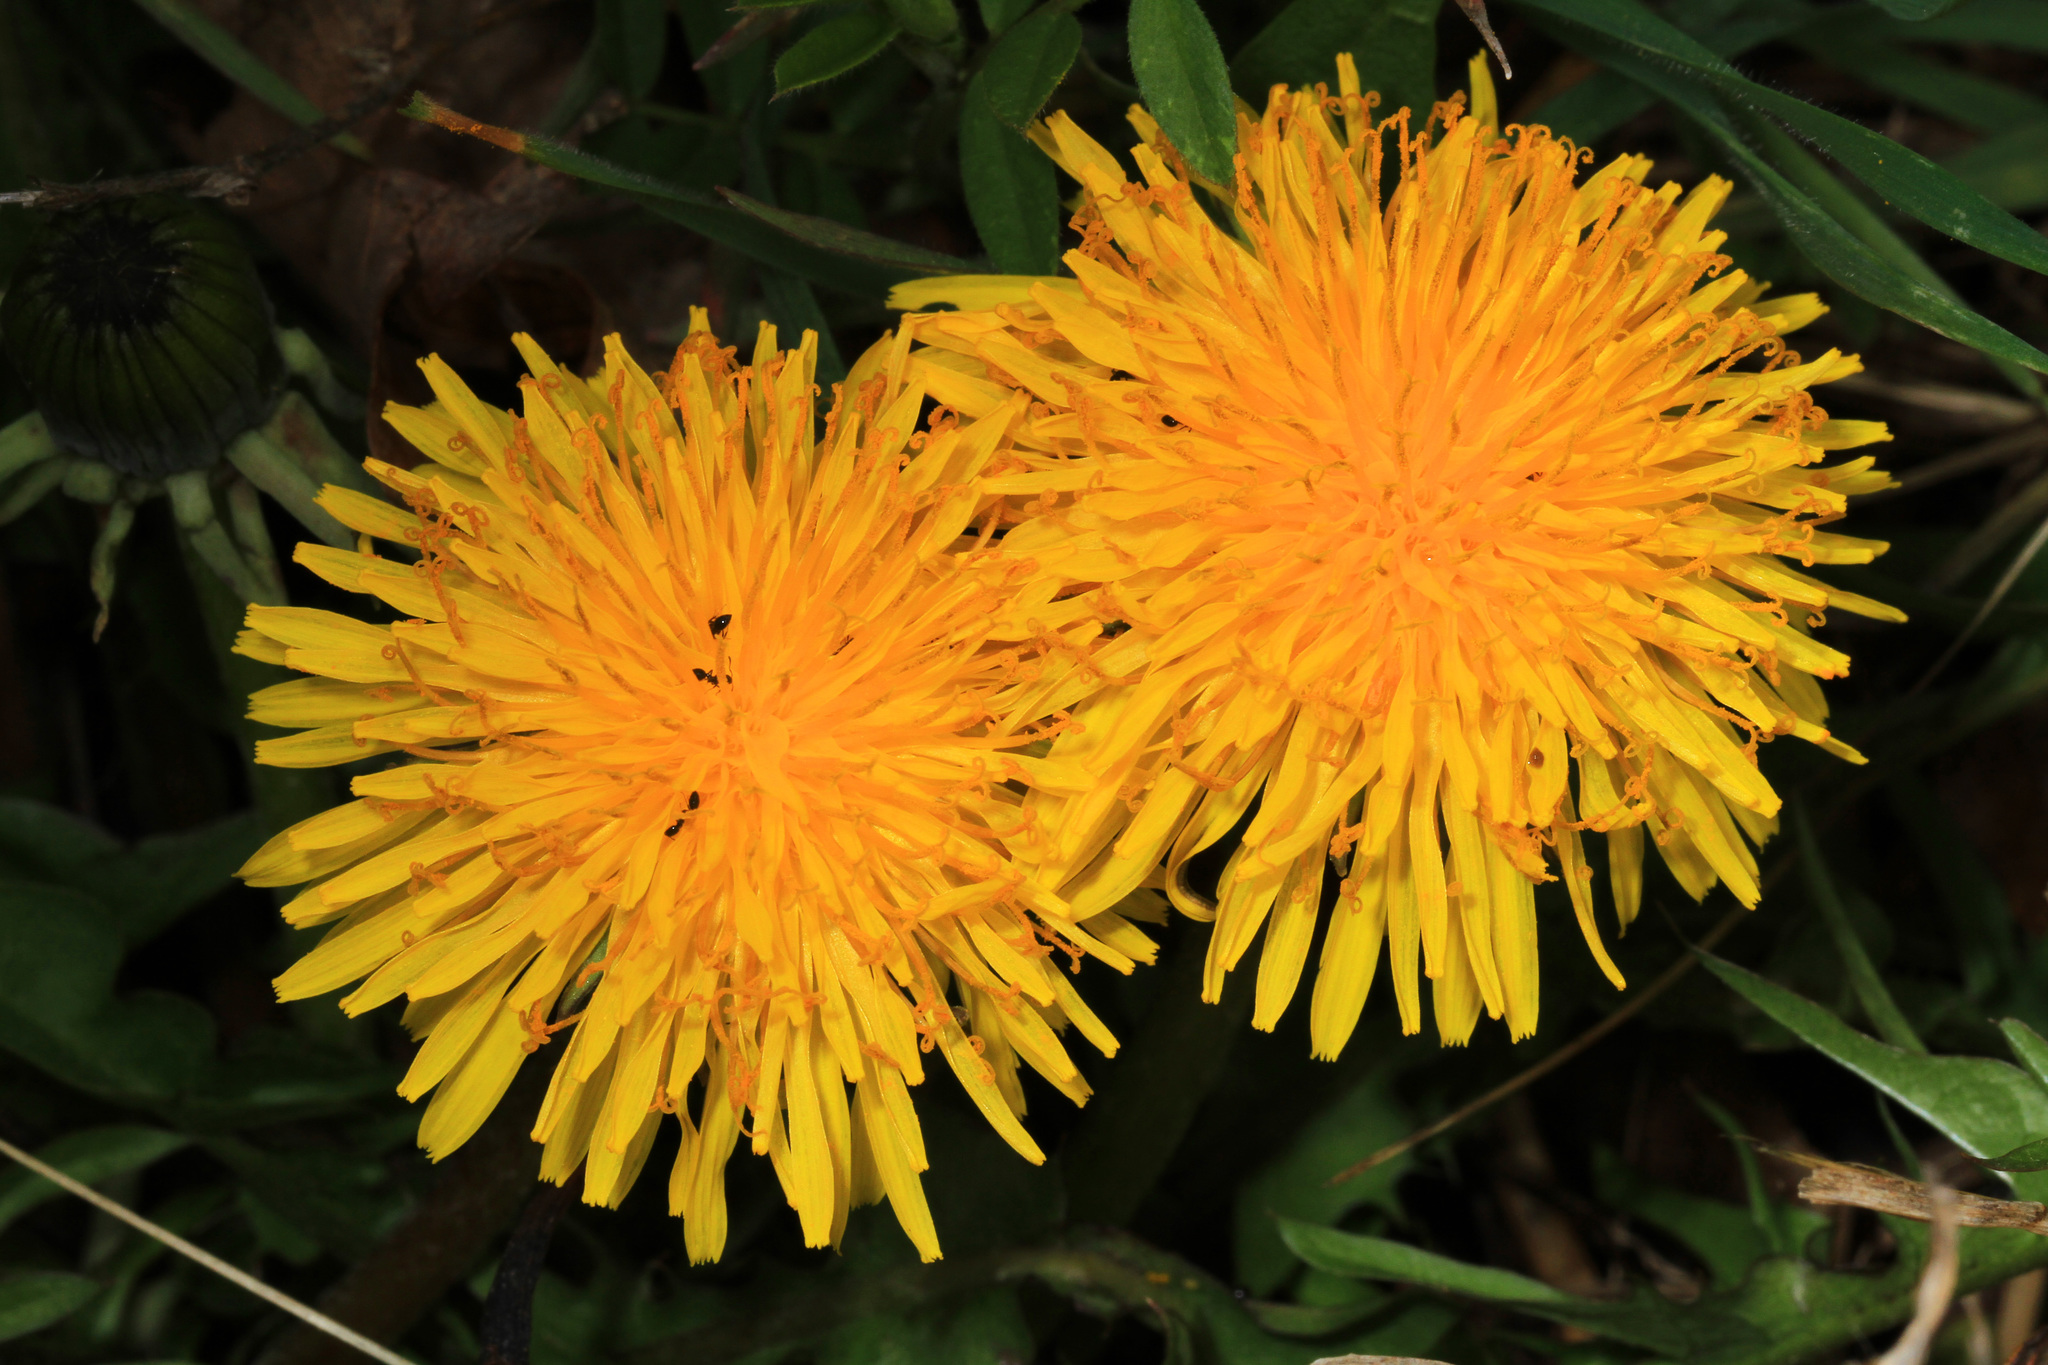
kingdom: Plantae
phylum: Tracheophyta
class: Magnoliopsida
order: Asterales
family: Asteraceae
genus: Taraxacum
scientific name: Taraxacum officinale
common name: Common dandelion
